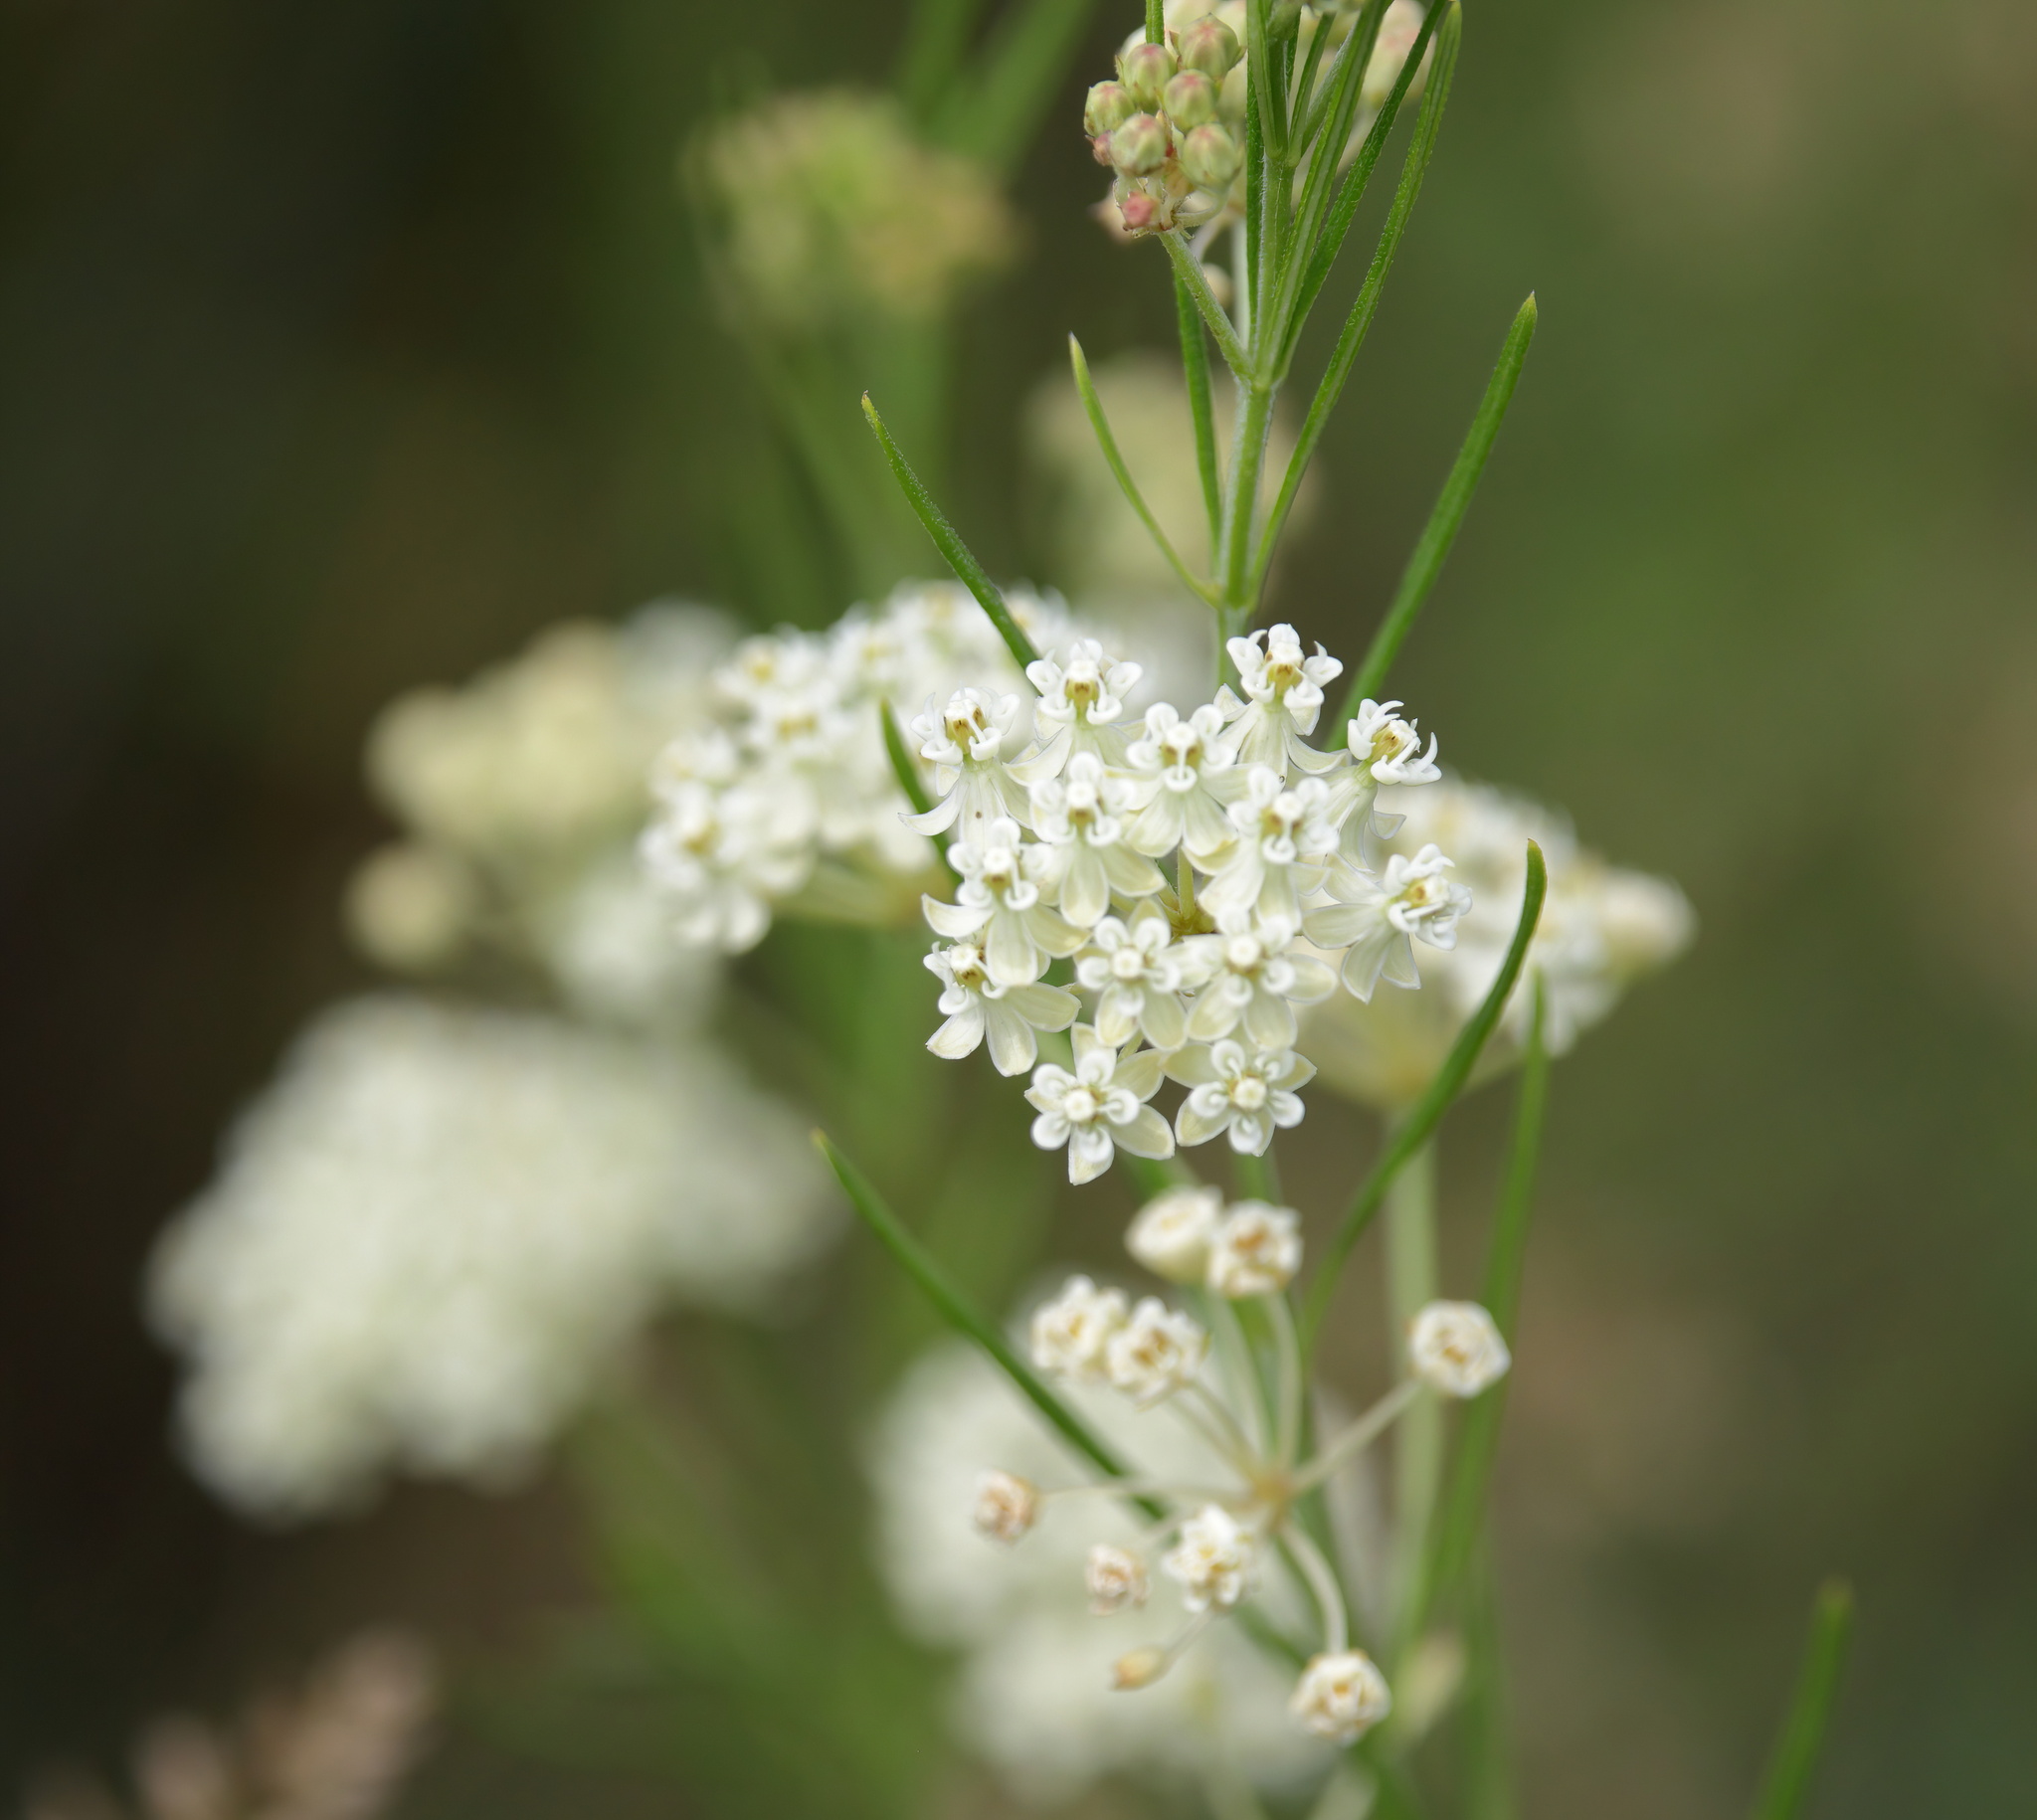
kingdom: Plantae
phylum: Tracheophyta
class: Magnoliopsida
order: Gentianales
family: Apocynaceae
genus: Asclepias
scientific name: Asclepias verticillata
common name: Eastern whorled milkweed
